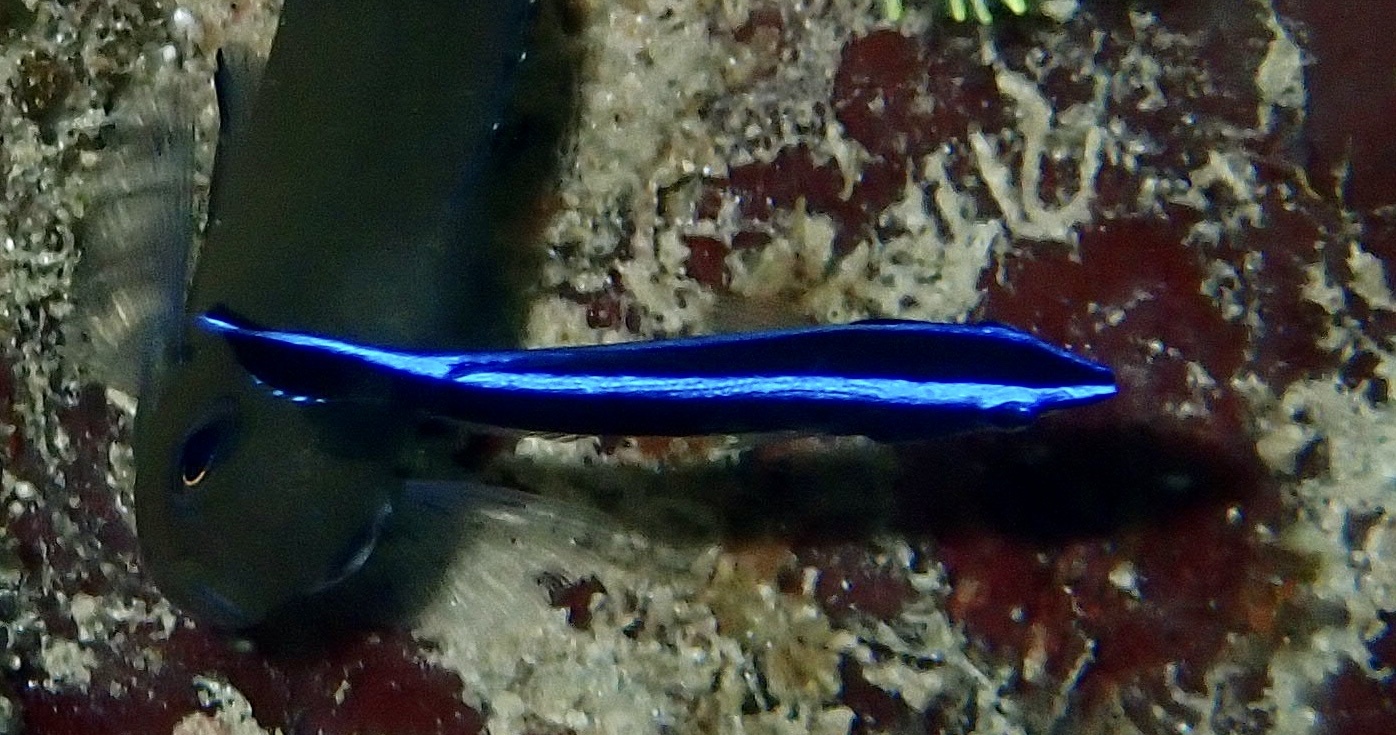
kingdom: Animalia
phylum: Chordata
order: Perciformes
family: Labridae
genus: Labroides
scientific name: Labroides dimidiatus
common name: Blue diesel wrasse
